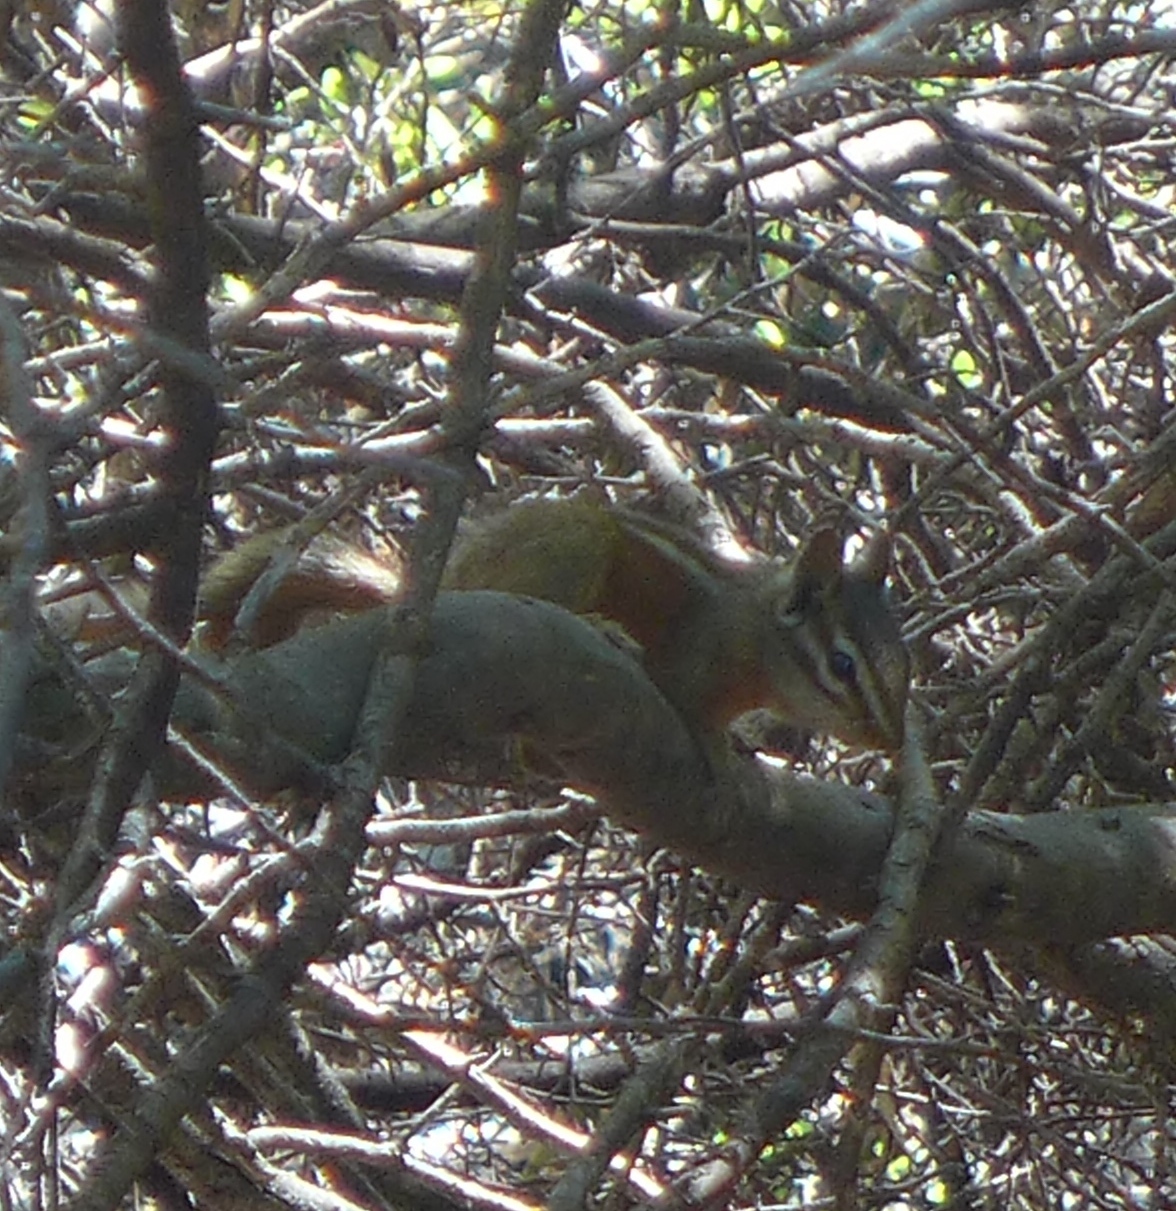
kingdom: Animalia
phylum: Chordata
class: Mammalia
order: Rodentia
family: Sciuridae
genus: Tamias
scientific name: Tamias merriami
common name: Merriam's chipmunk
